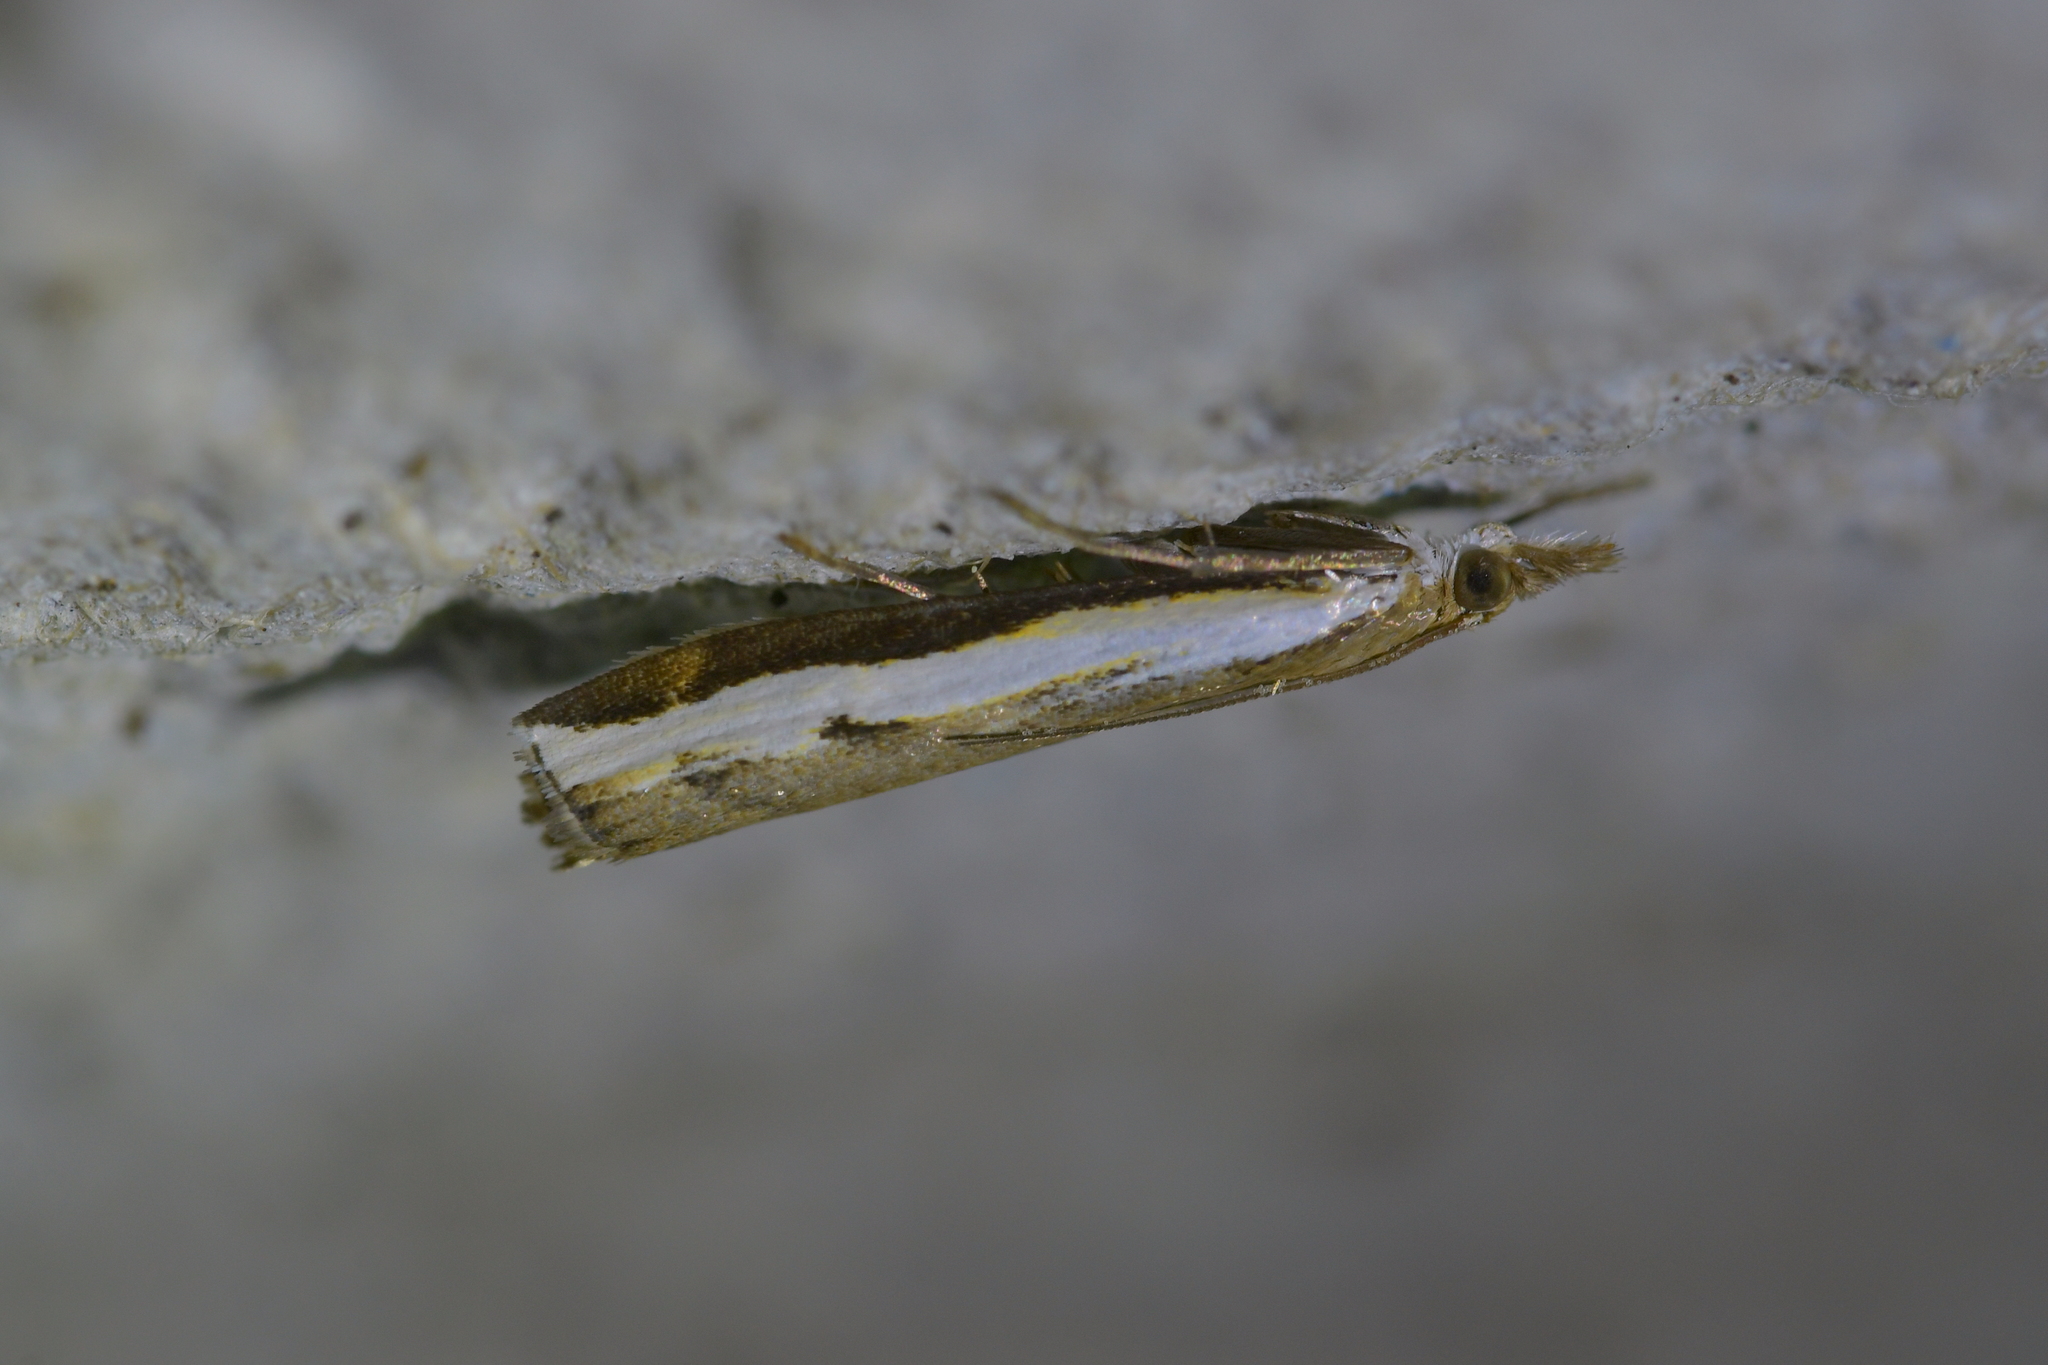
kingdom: Animalia
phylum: Arthropoda
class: Insecta
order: Lepidoptera
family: Crambidae
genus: Orocrambus
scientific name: Orocrambus flexuosellus
